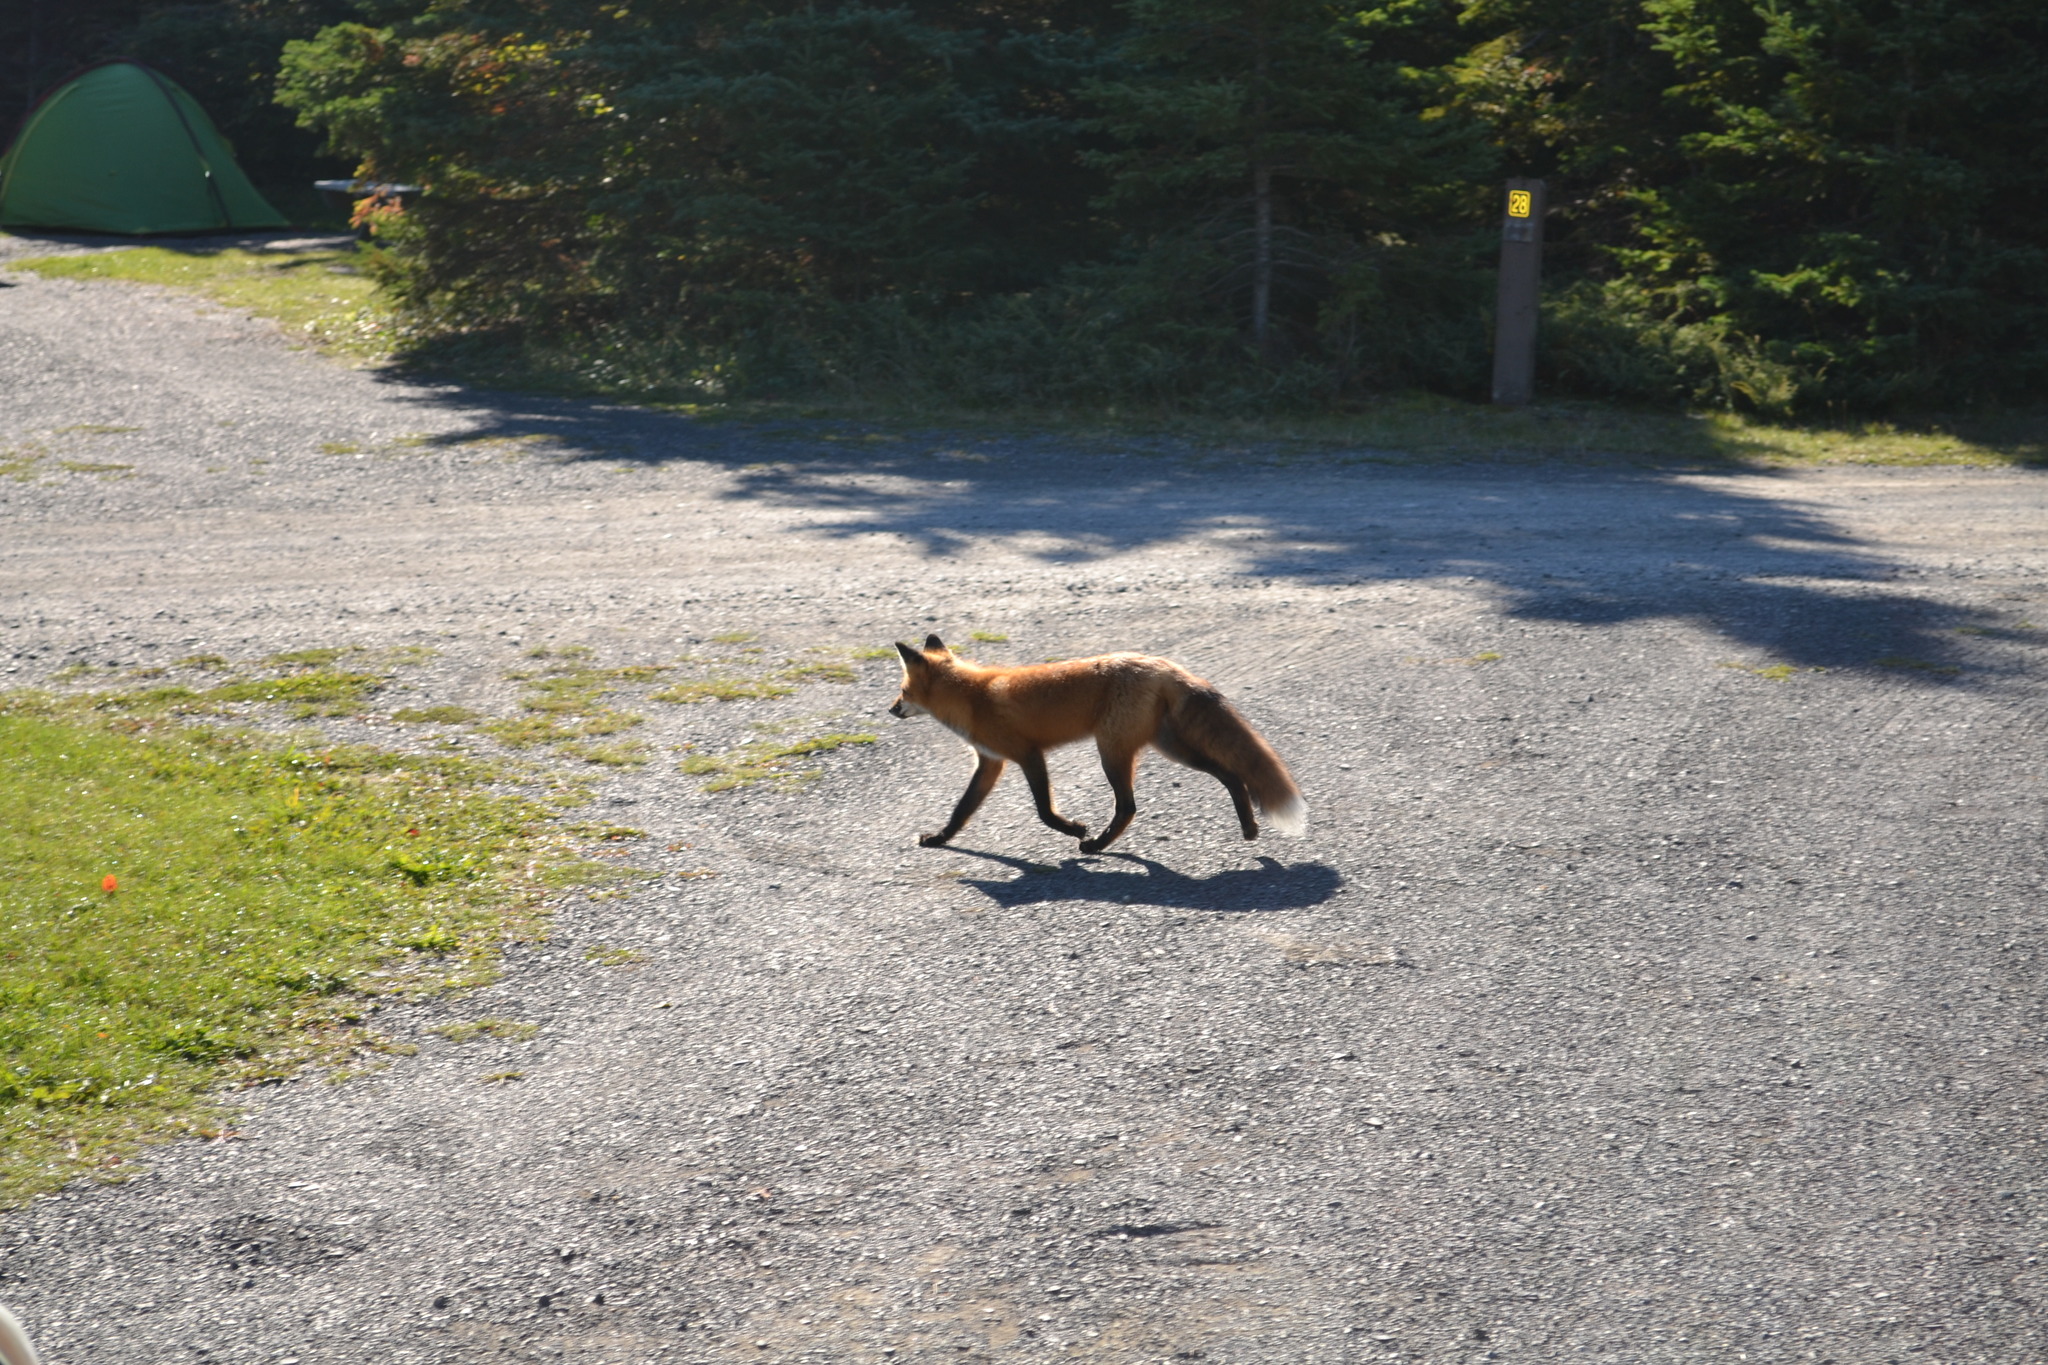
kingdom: Animalia
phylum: Chordata
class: Mammalia
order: Carnivora
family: Canidae
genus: Vulpes
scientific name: Vulpes vulpes
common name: Red fox
